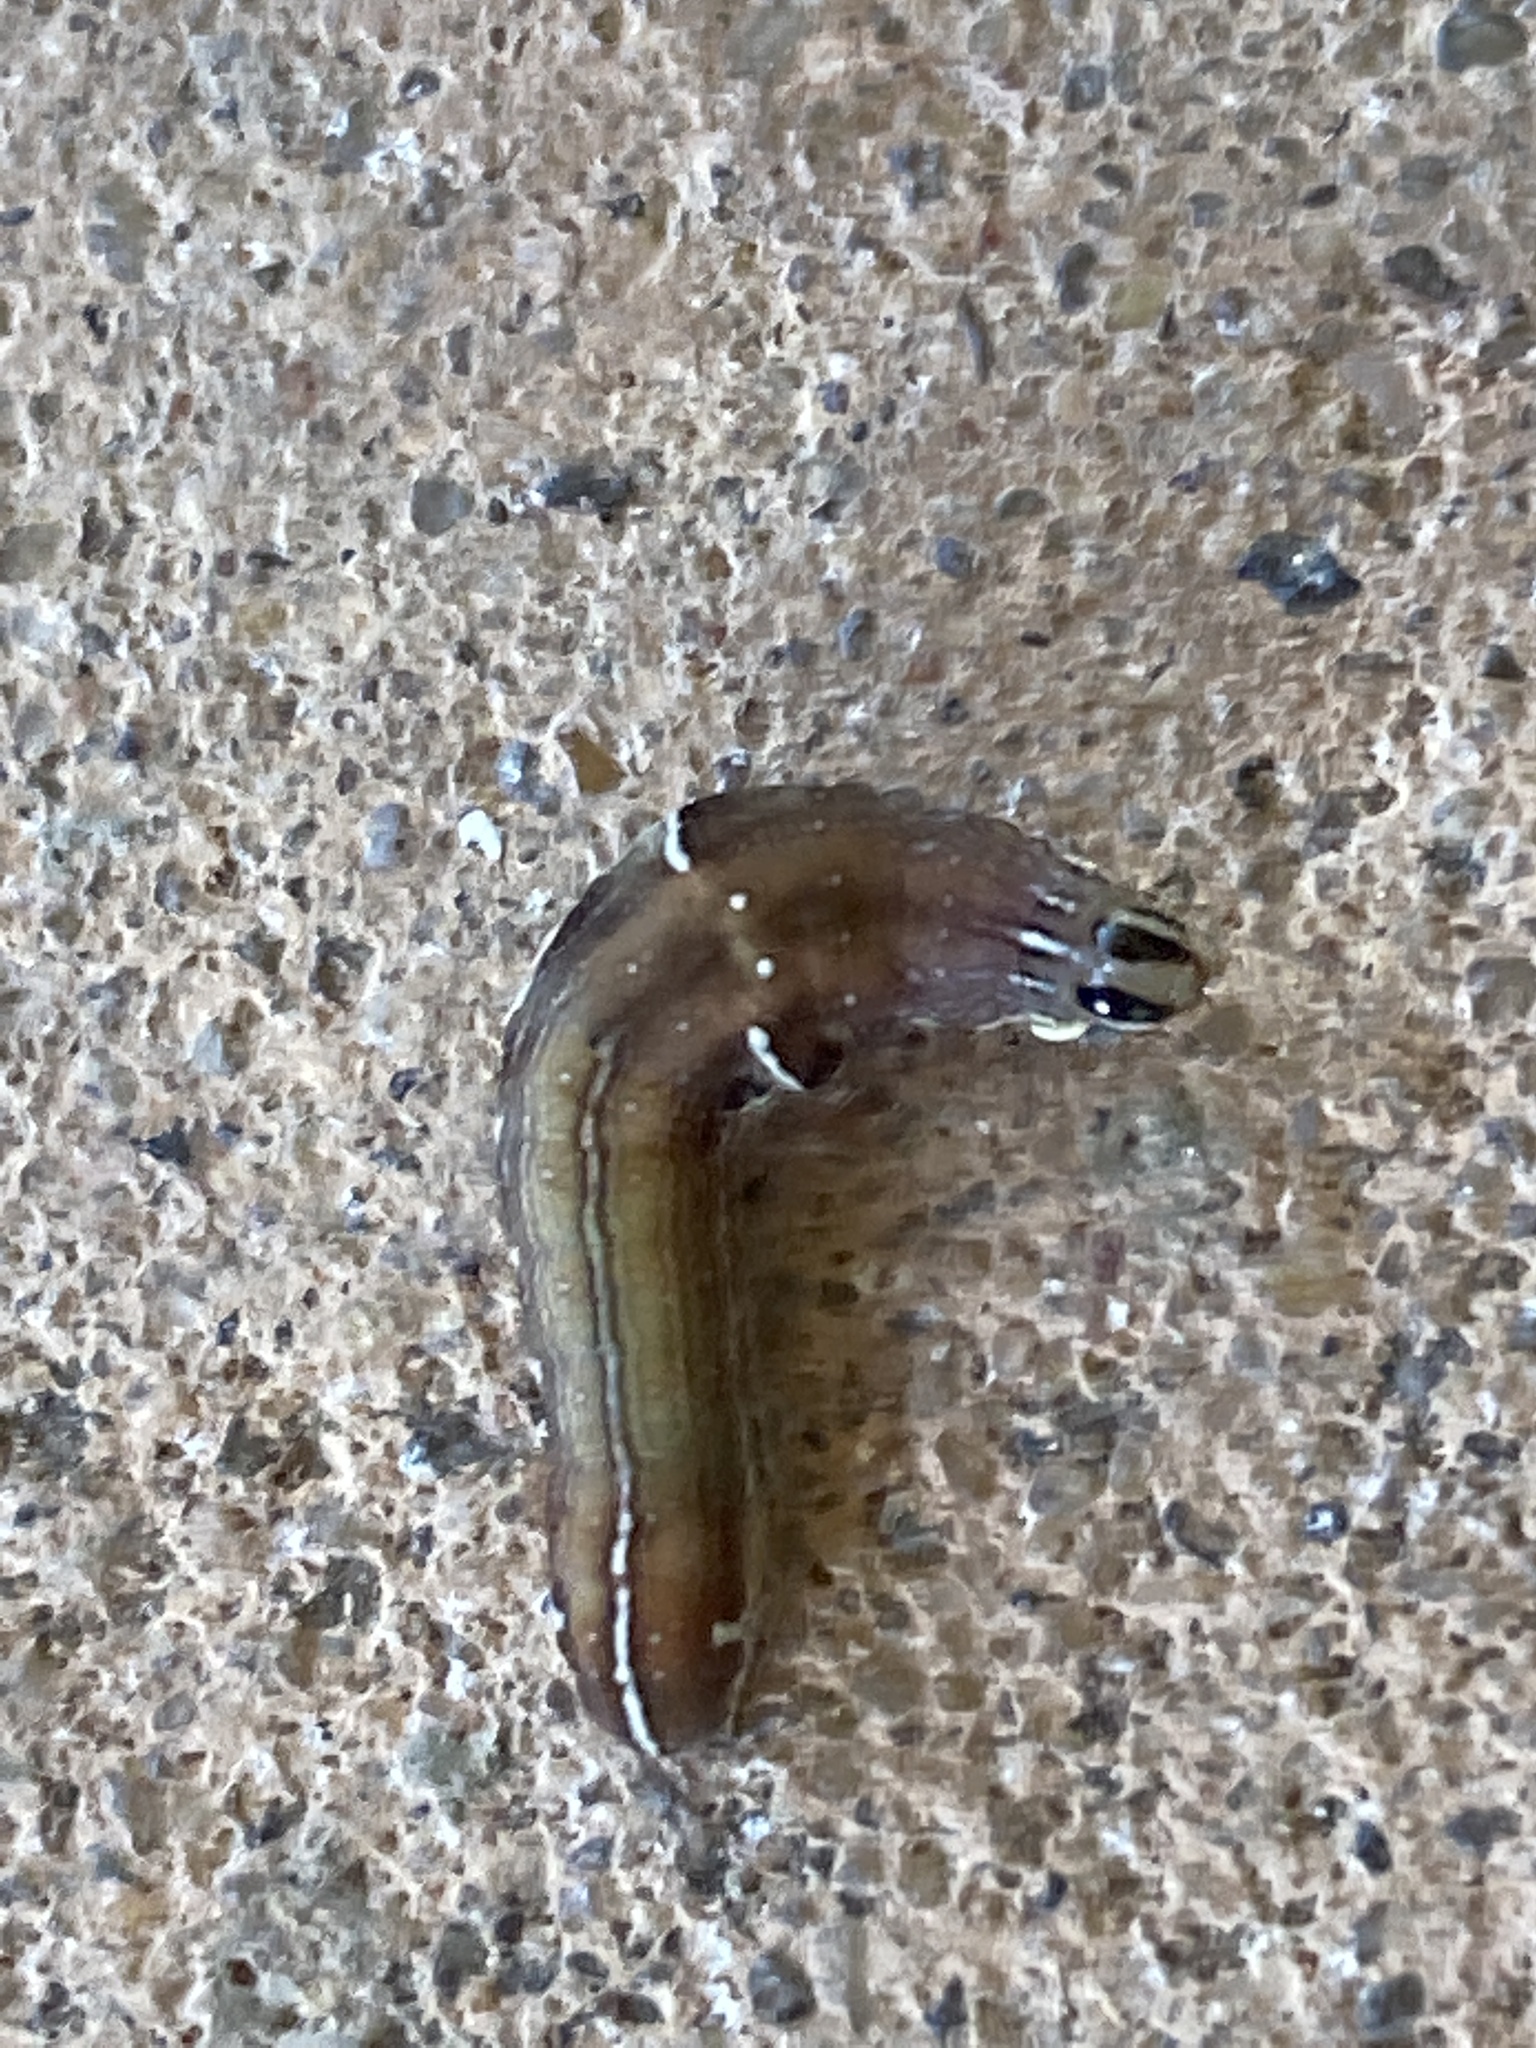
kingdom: Animalia
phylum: Arthropoda
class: Insecta
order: Lepidoptera
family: Noctuidae
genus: Galgula
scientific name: Galgula partita
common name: Wedgeling
